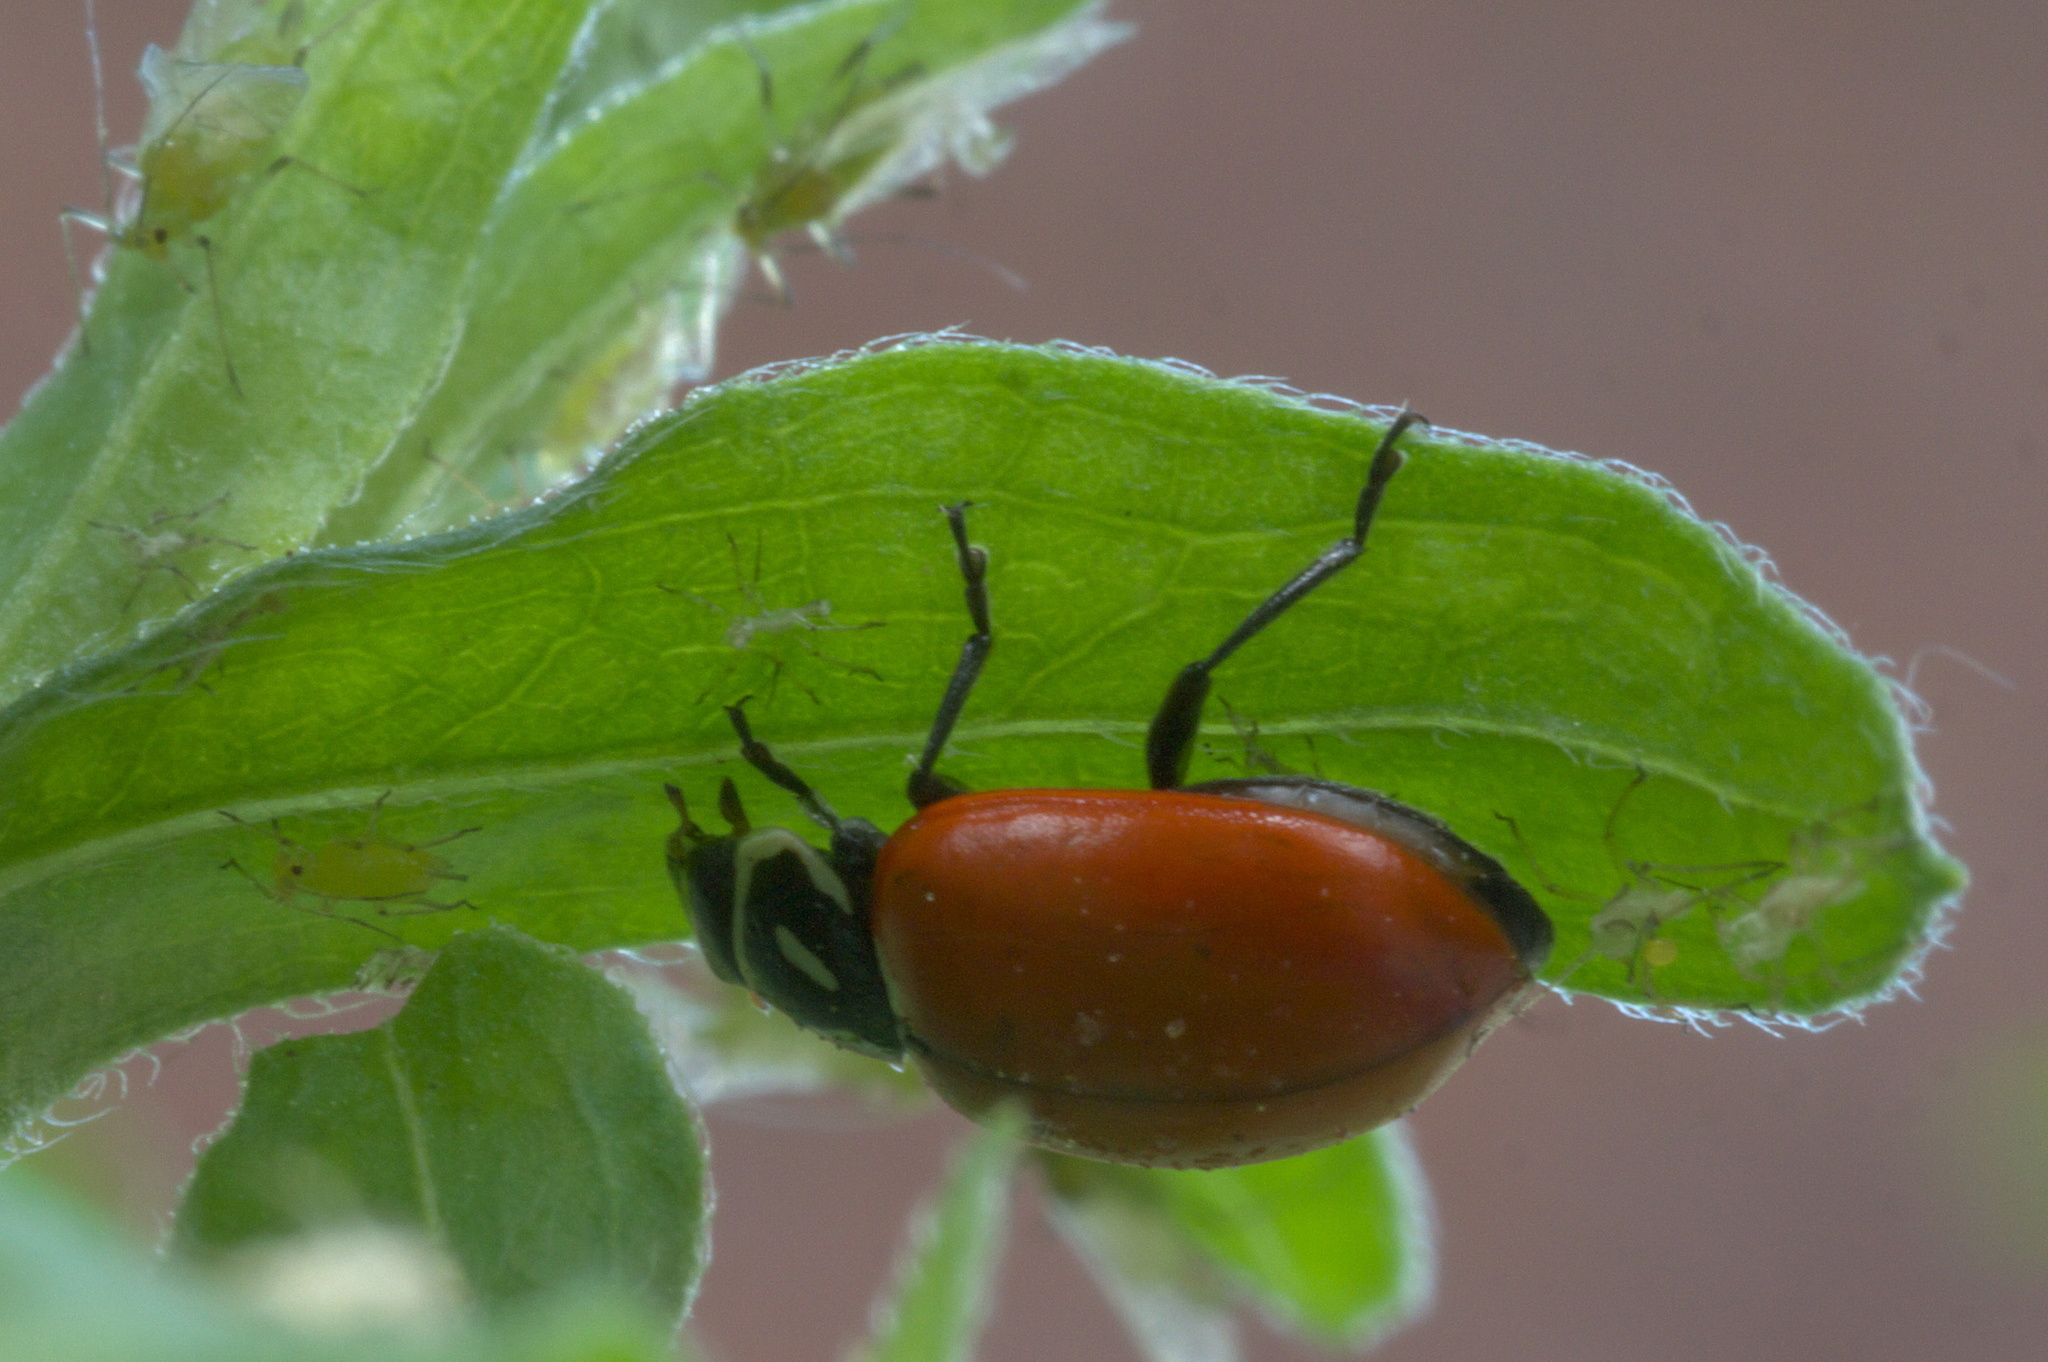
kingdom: Animalia
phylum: Arthropoda
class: Insecta
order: Coleoptera
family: Coccinellidae
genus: Hippodamia
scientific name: Hippodamia convergens
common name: Convergent lady beetle
